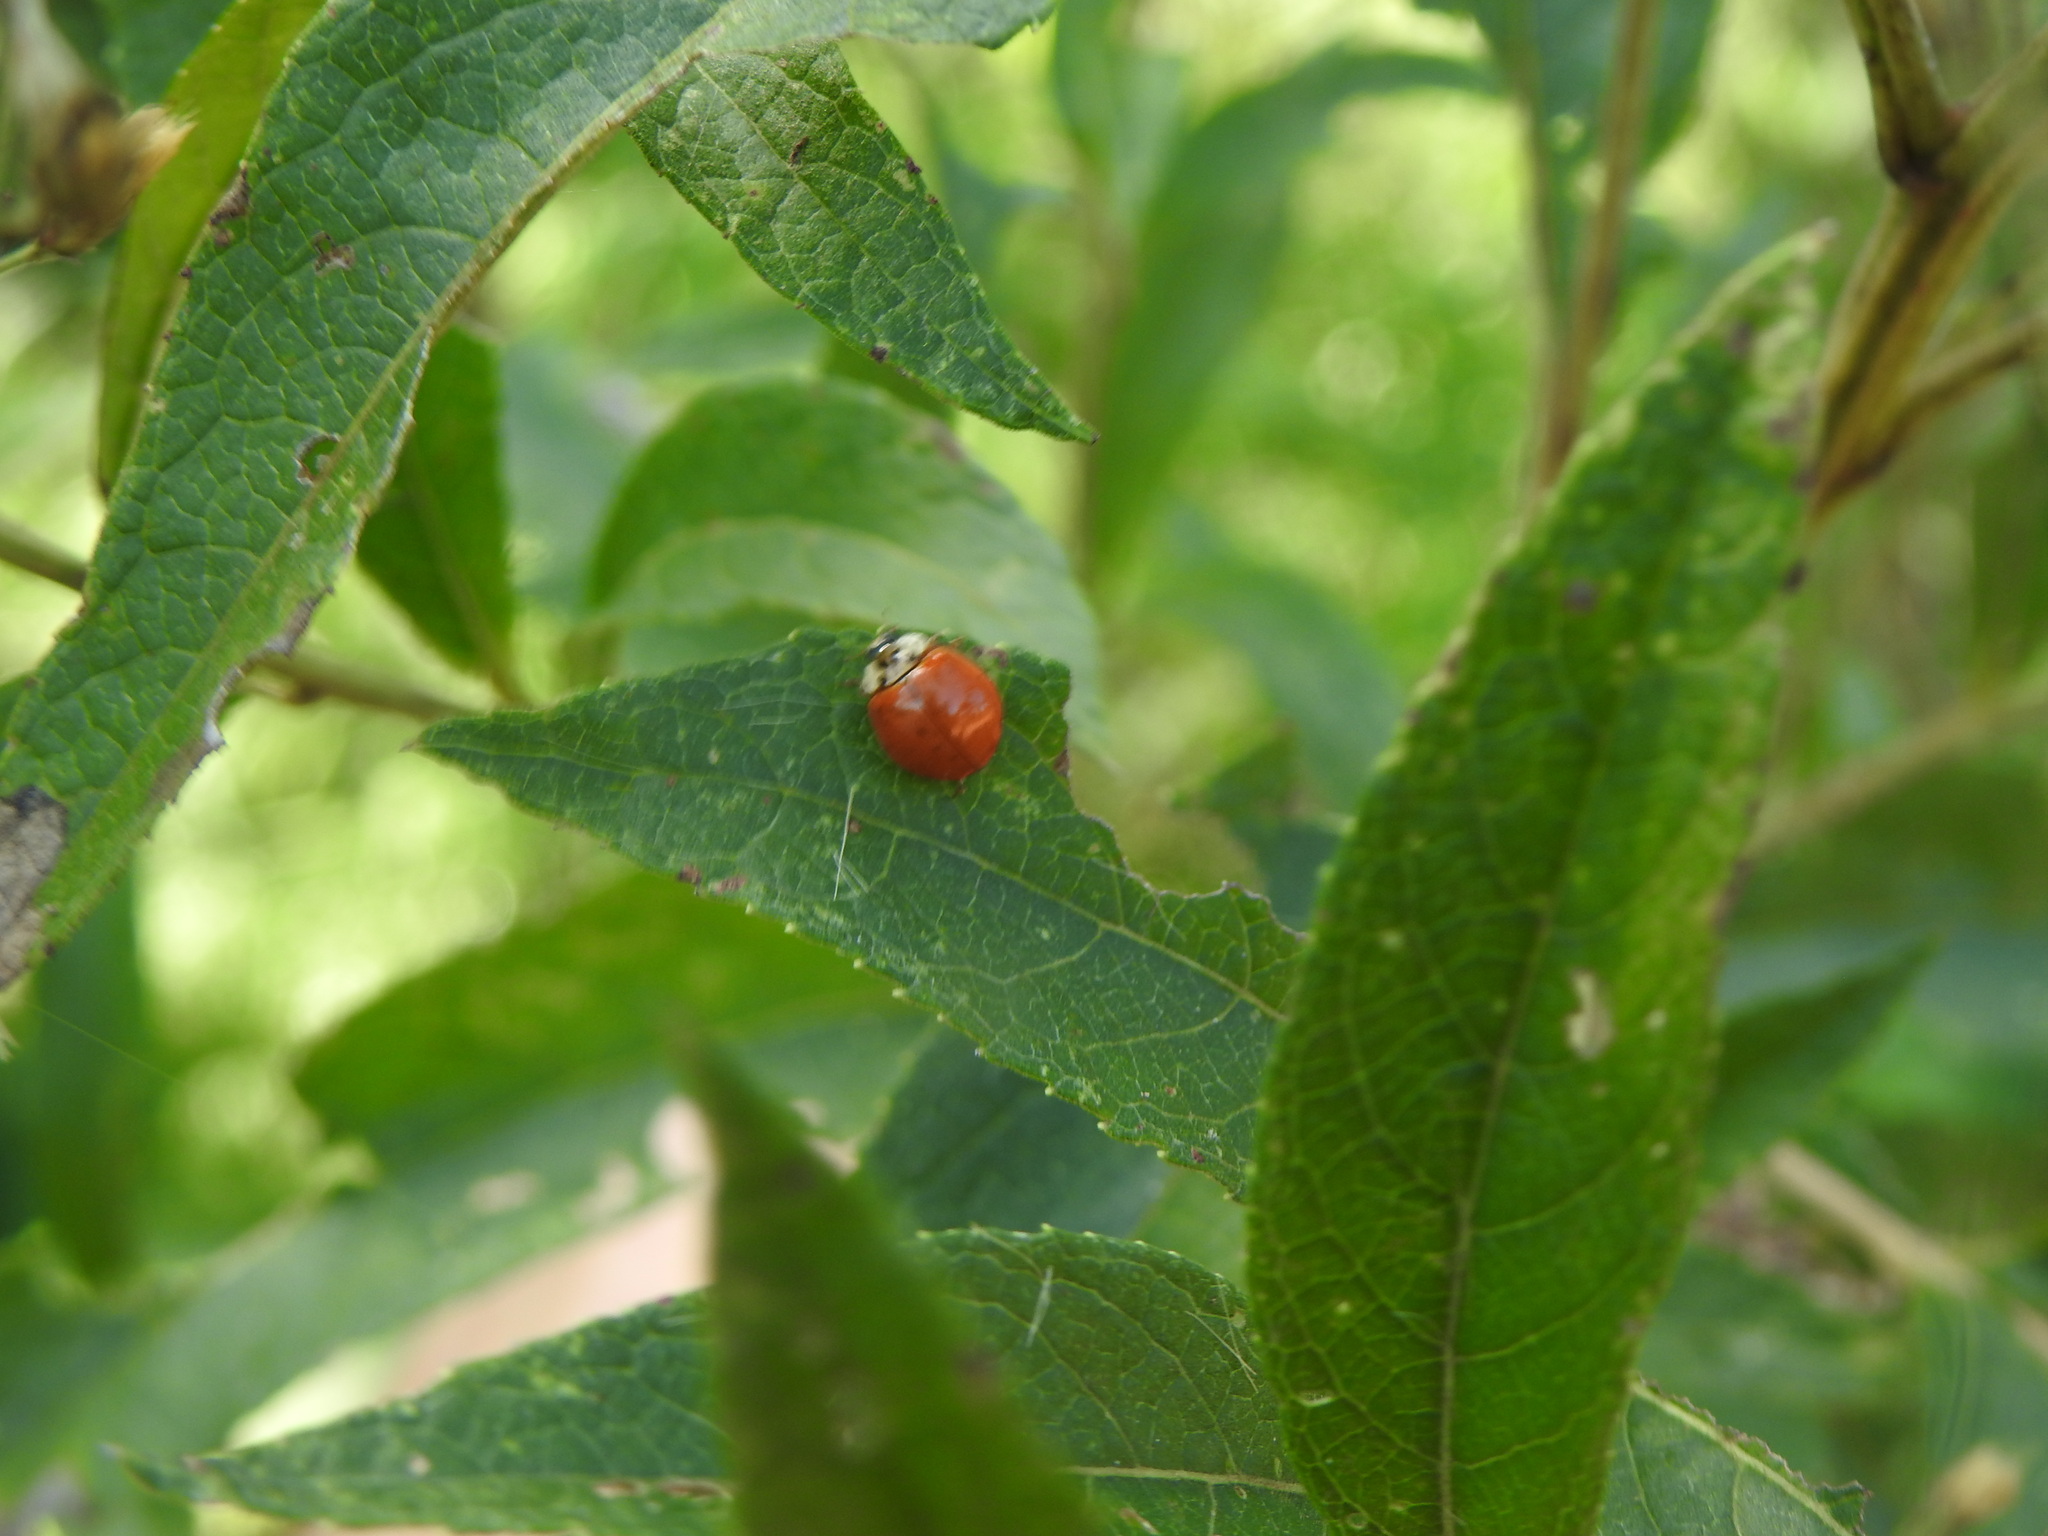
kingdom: Animalia
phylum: Arthropoda
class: Insecta
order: Coleoptera
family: Coccinellidae
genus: Harmonia
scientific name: Harmonia axyridis
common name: Harlequin ladybird
